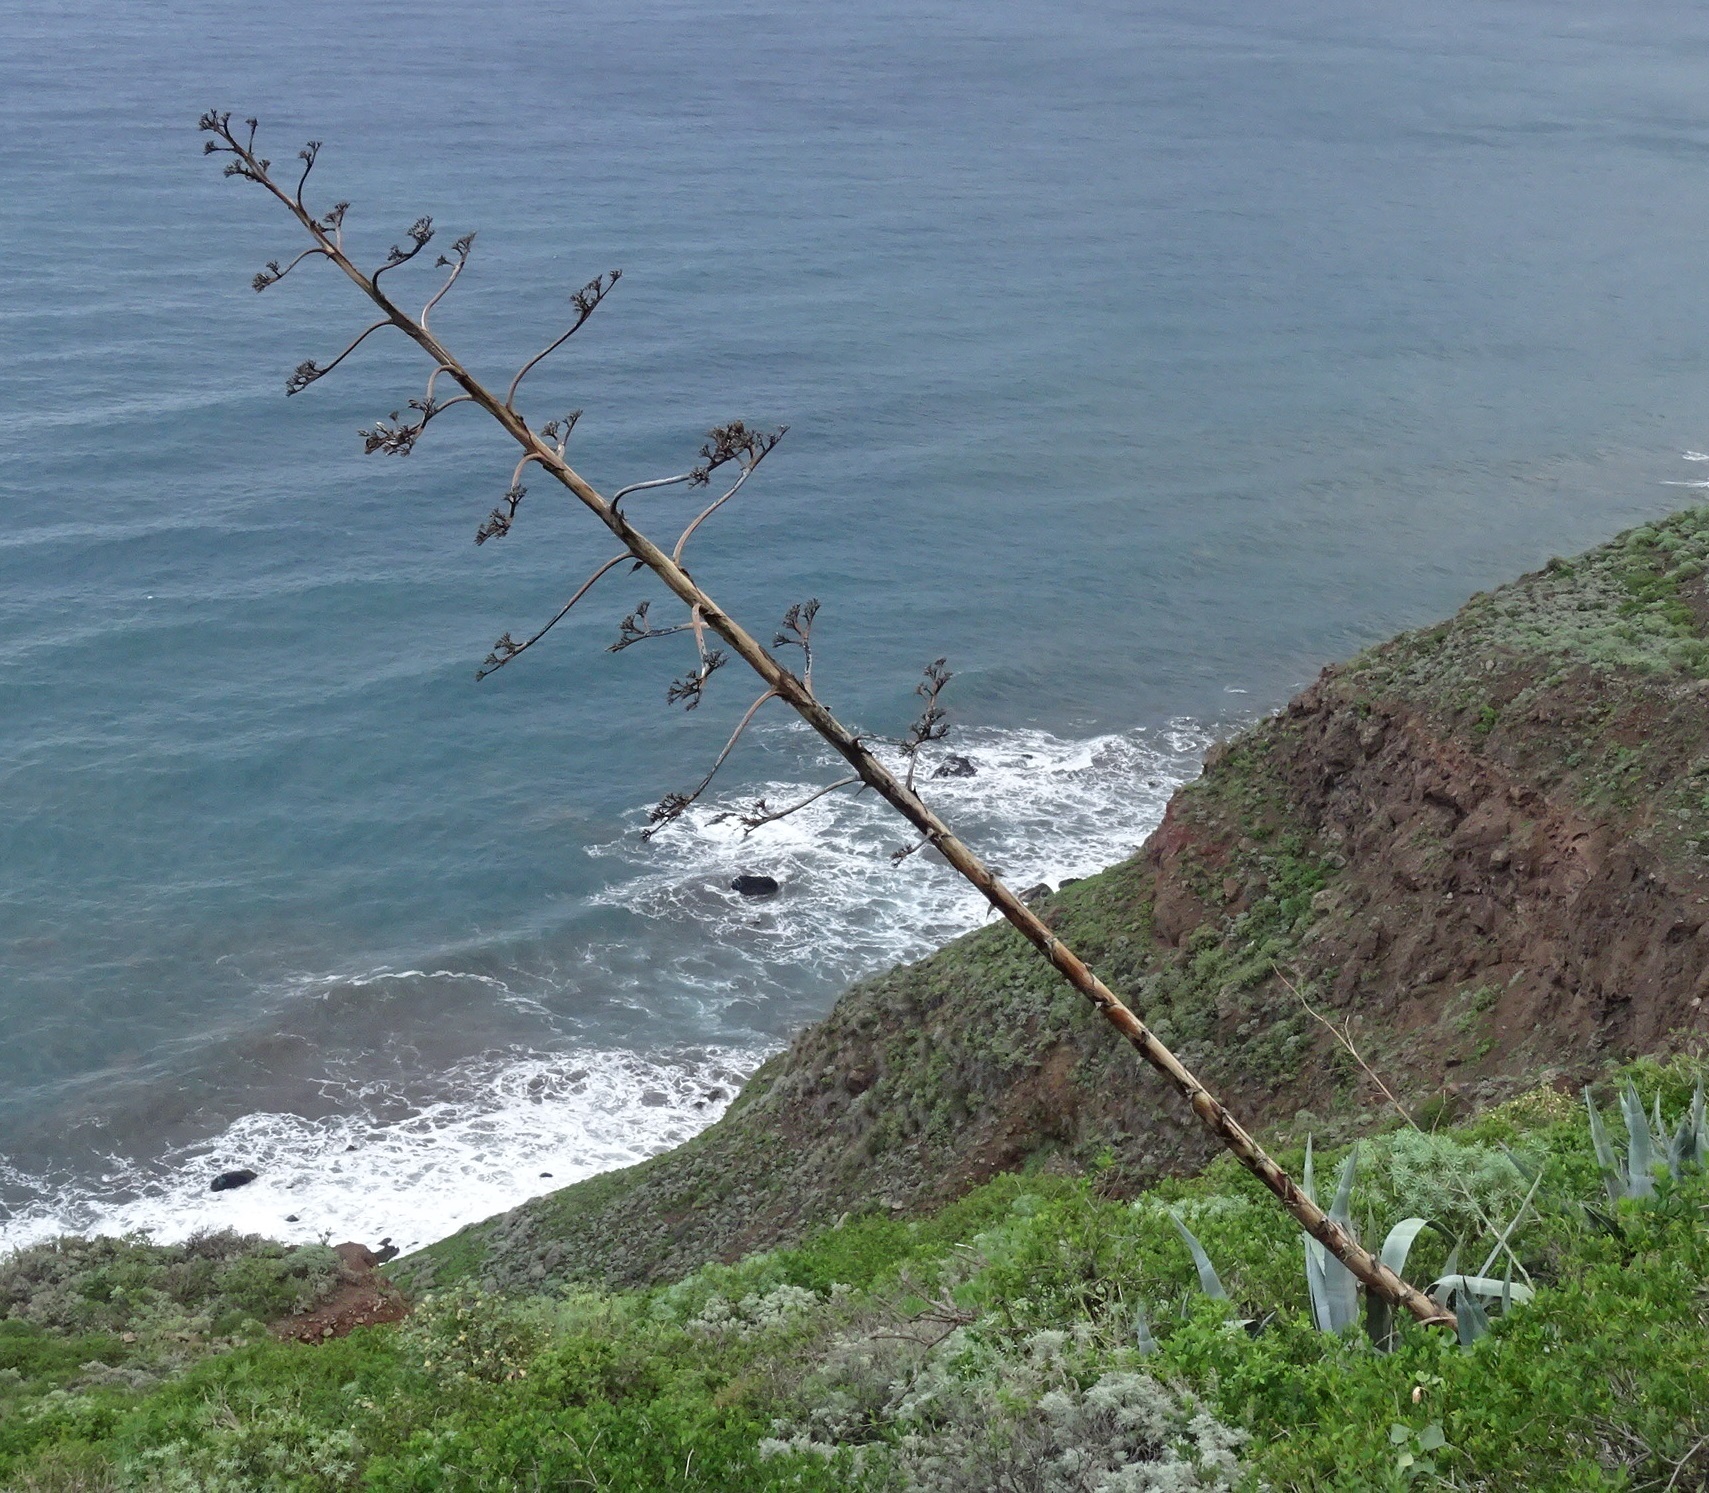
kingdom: Plantae
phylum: Tracheophyta
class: Liliopsida
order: Asparagales
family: Asparagaceae
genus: Agave
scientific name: Agave americana
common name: Centuryplant
